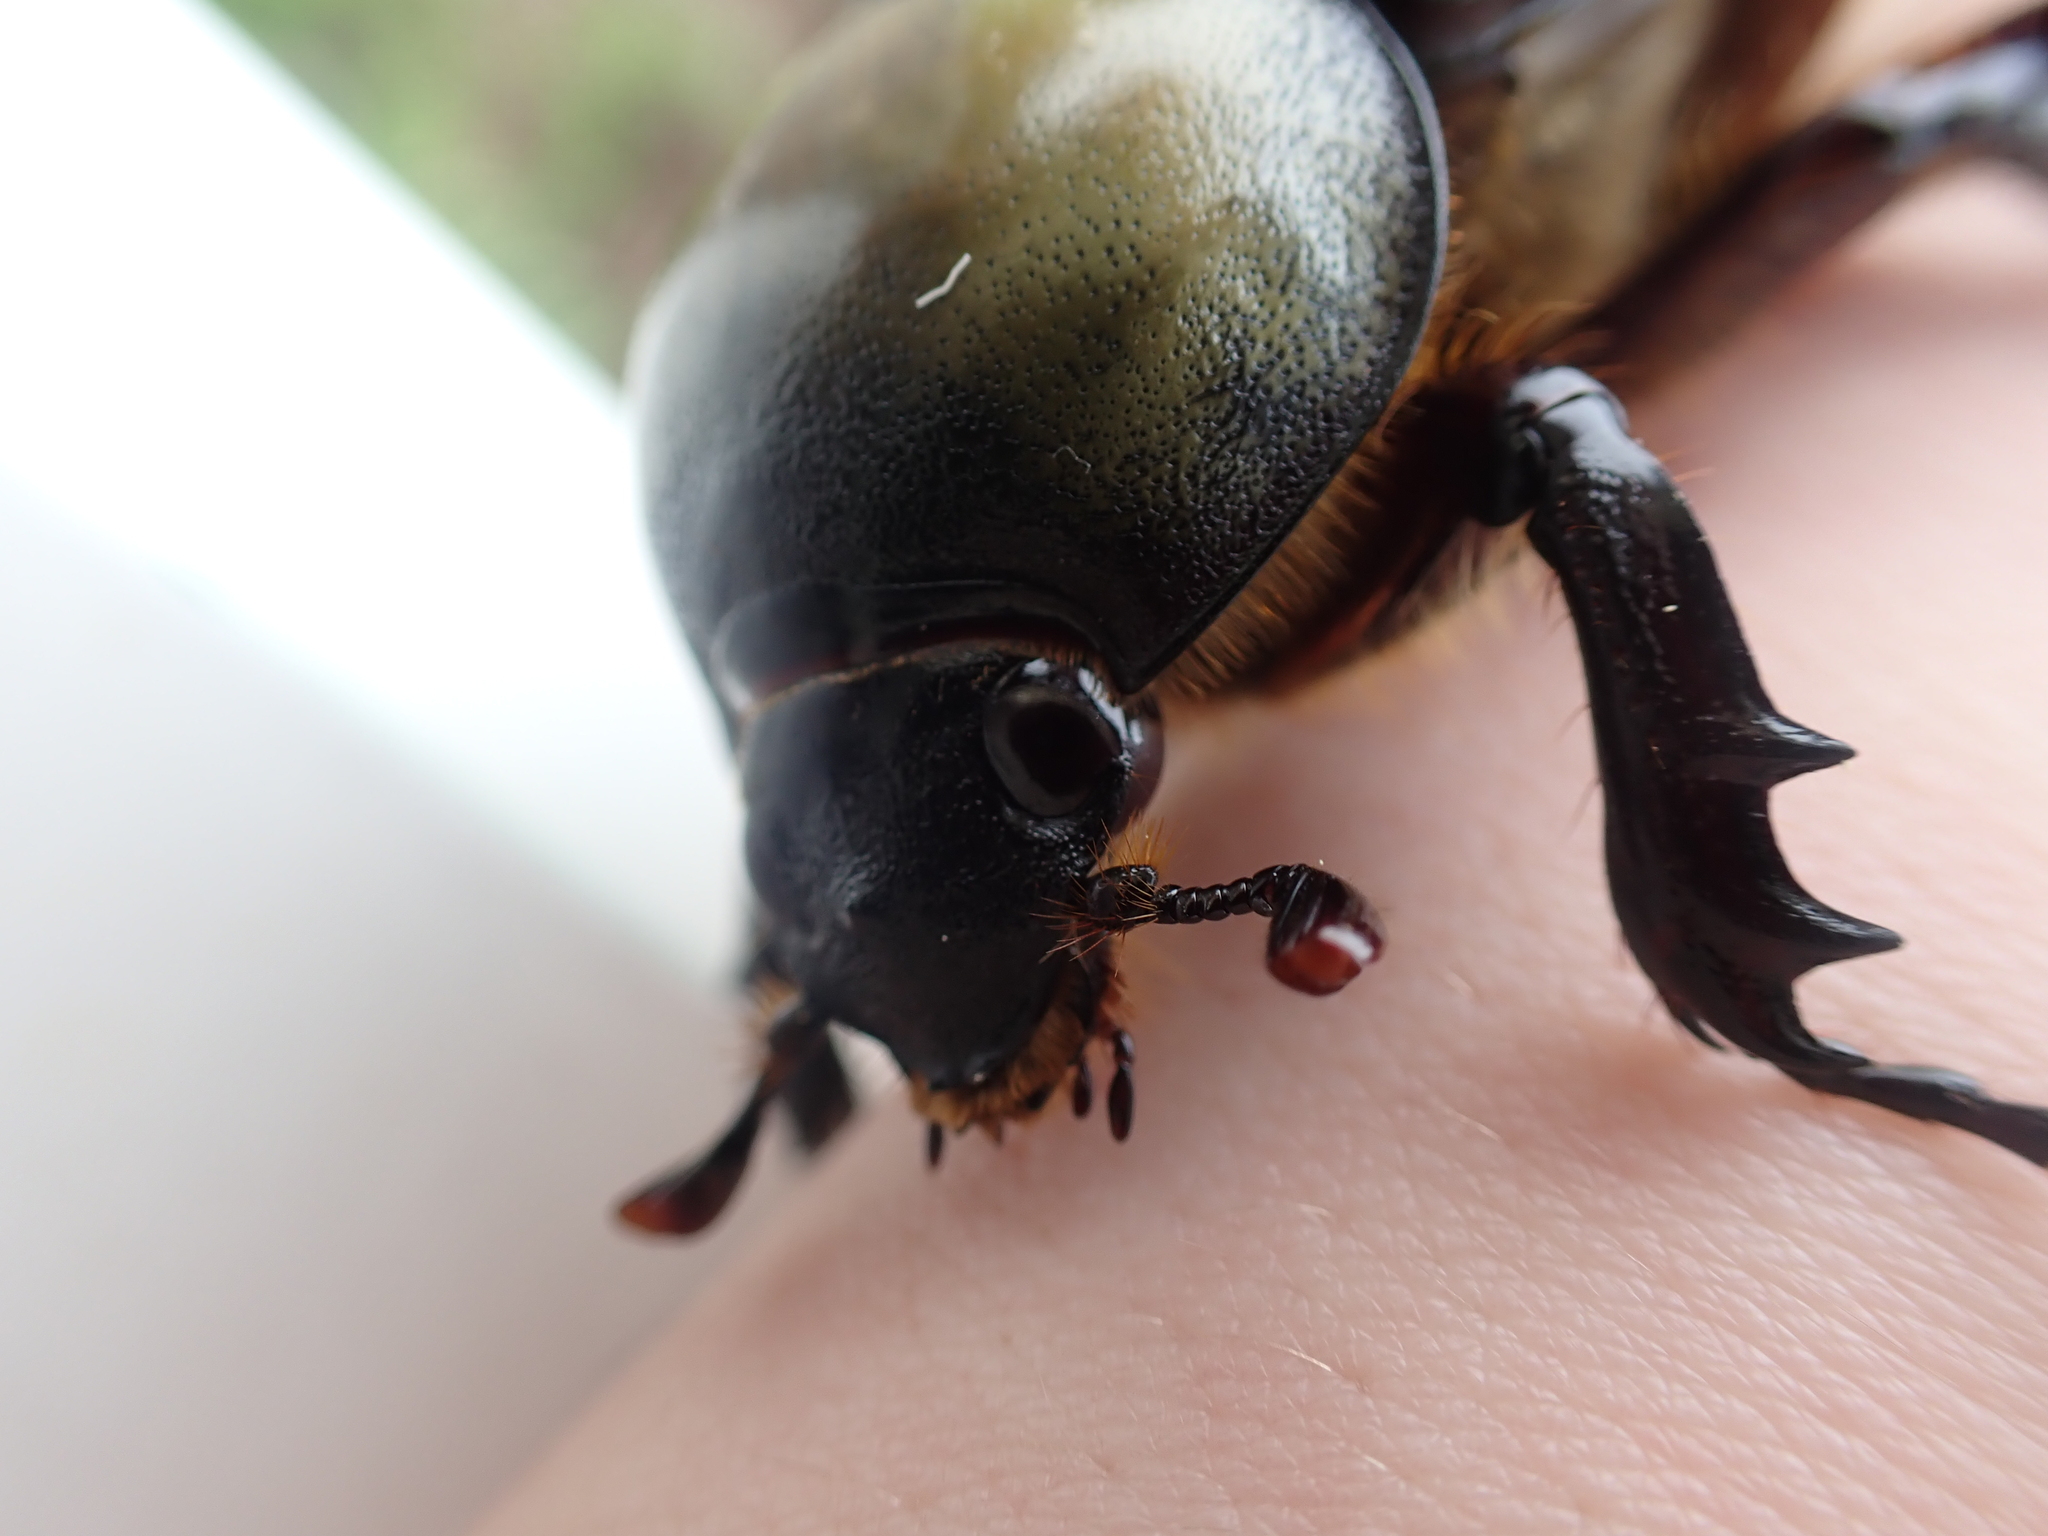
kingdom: Animalia
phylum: Arthropoda
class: Insecta
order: Coleoptera
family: Scarabaeidae
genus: Dynastes
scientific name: Dynastes tityus
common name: Eastern hercules beetle
